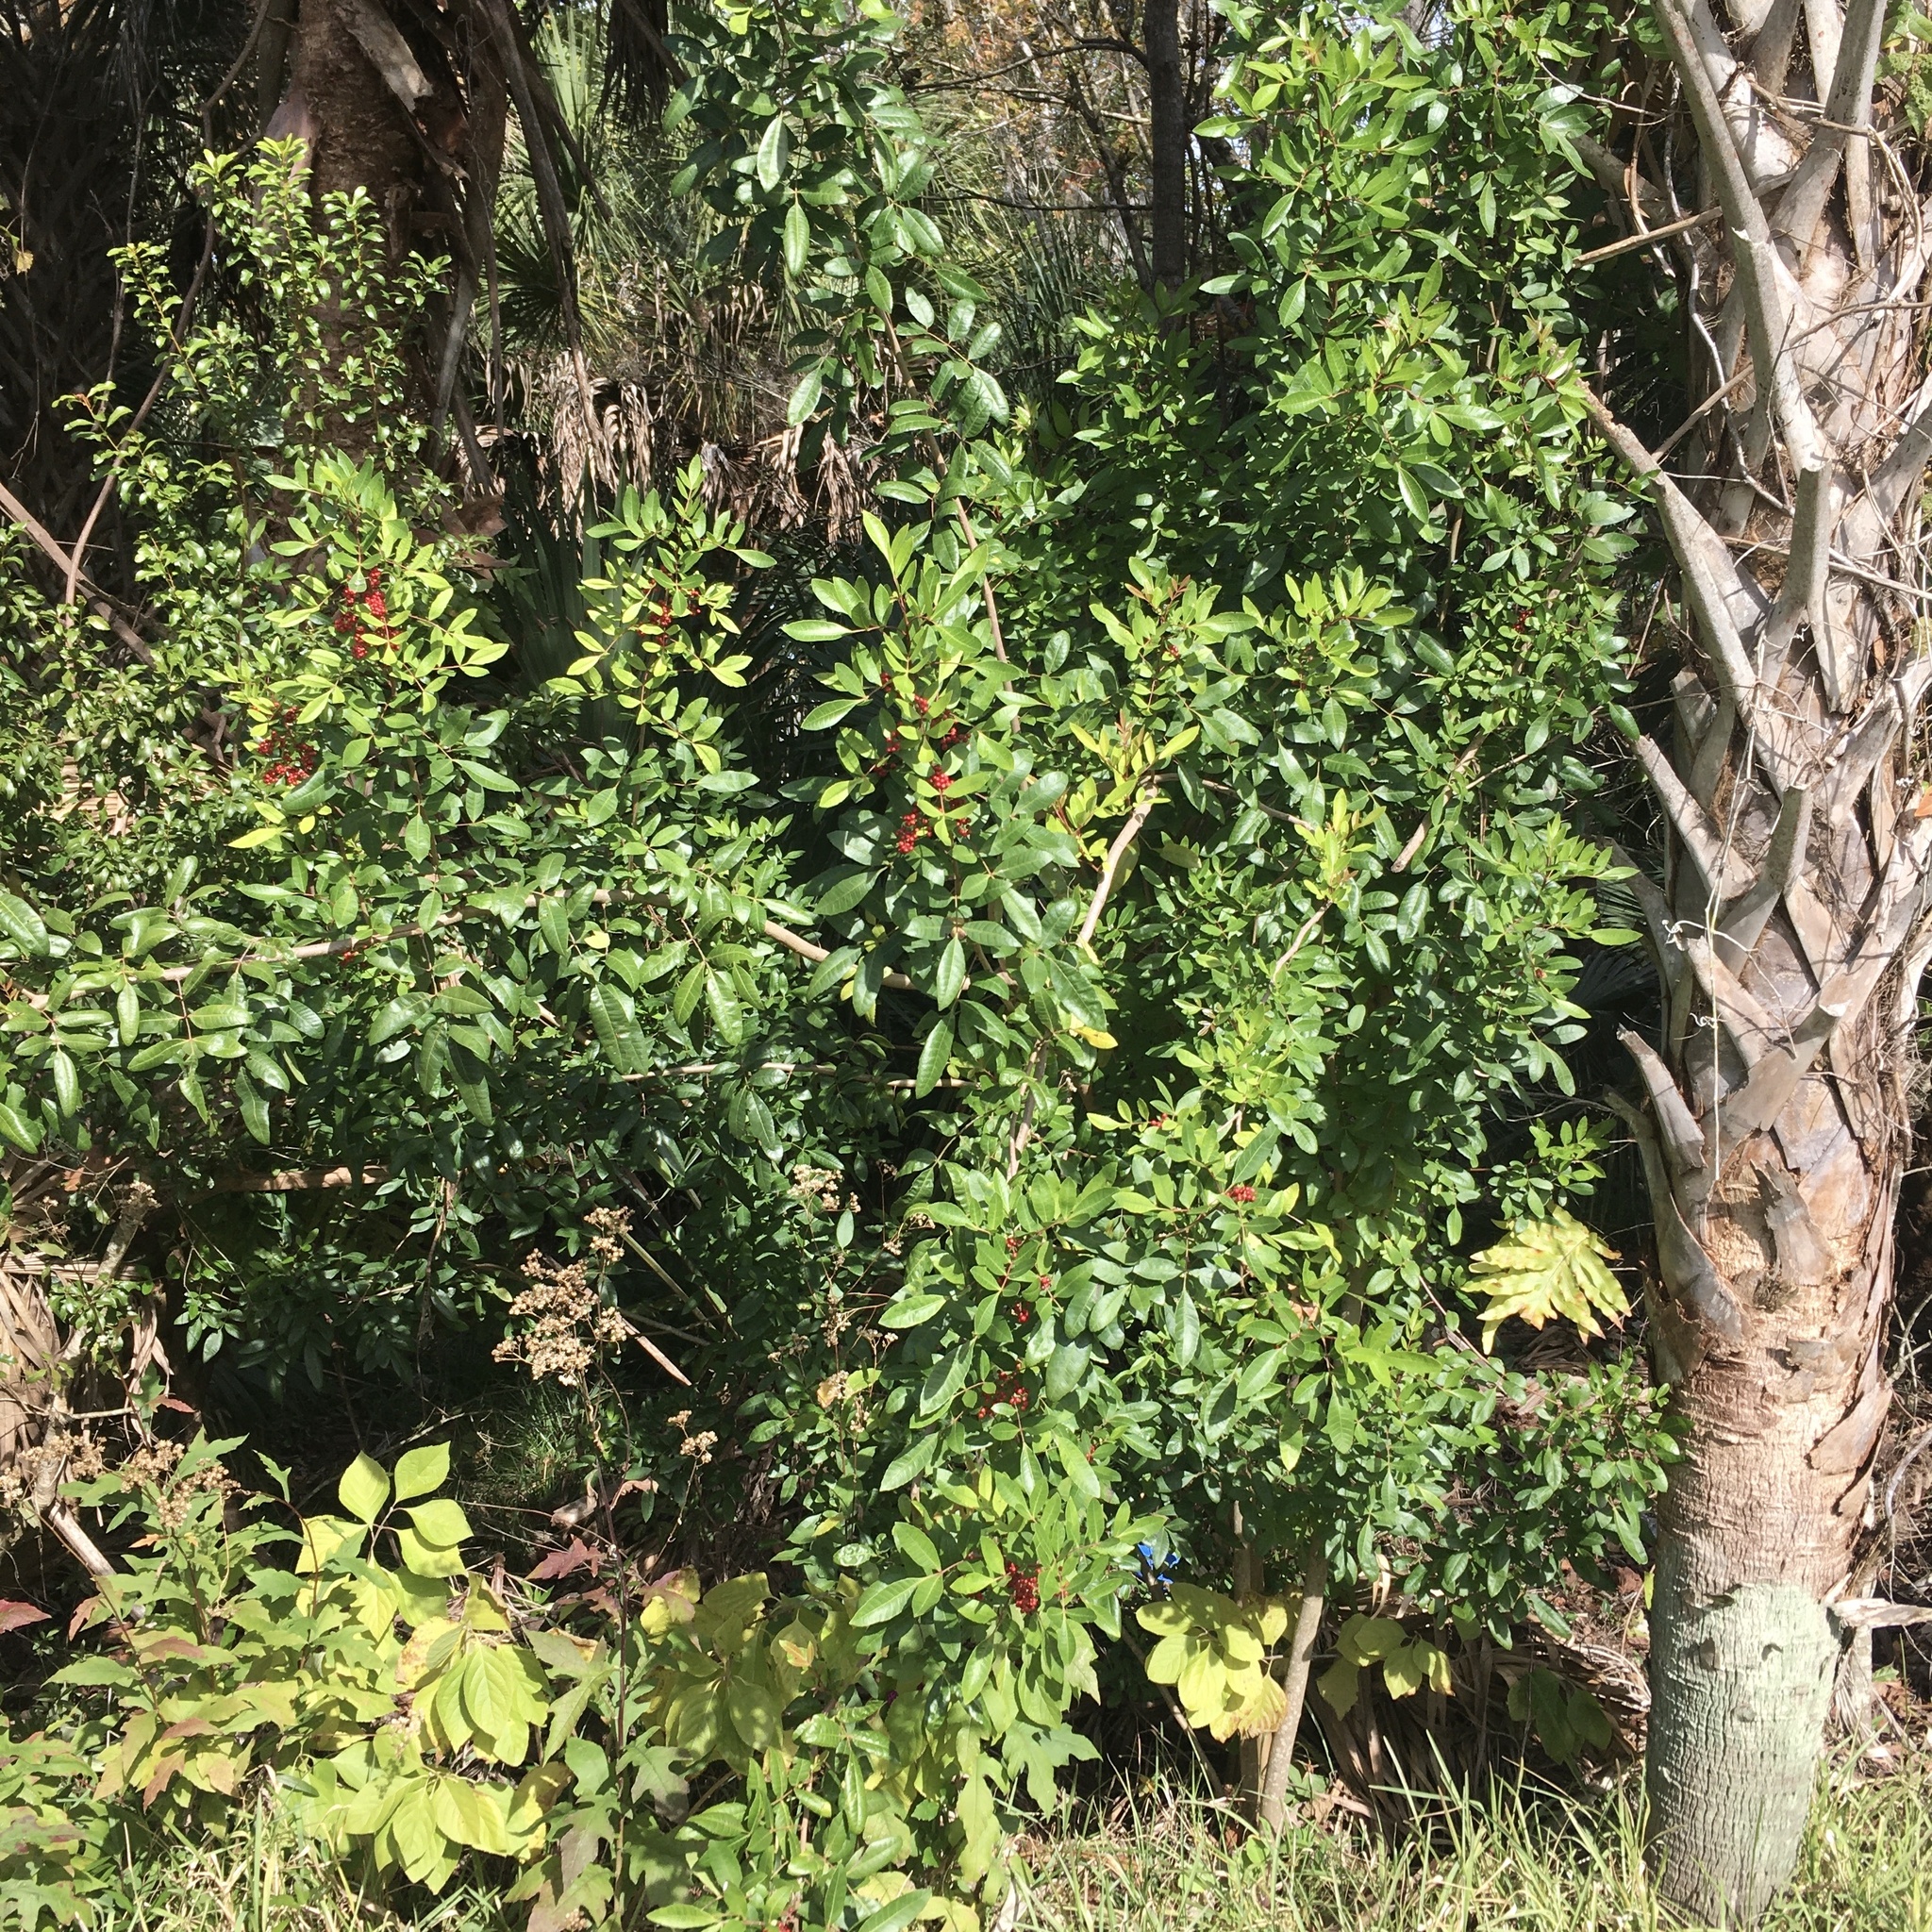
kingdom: Plantae
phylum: Tracheophyta
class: Magnoliopsida
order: Sapindales
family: Anacardiaceae
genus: Schinus
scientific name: Schinus terebinthifolia
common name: Brazilian peppertree
